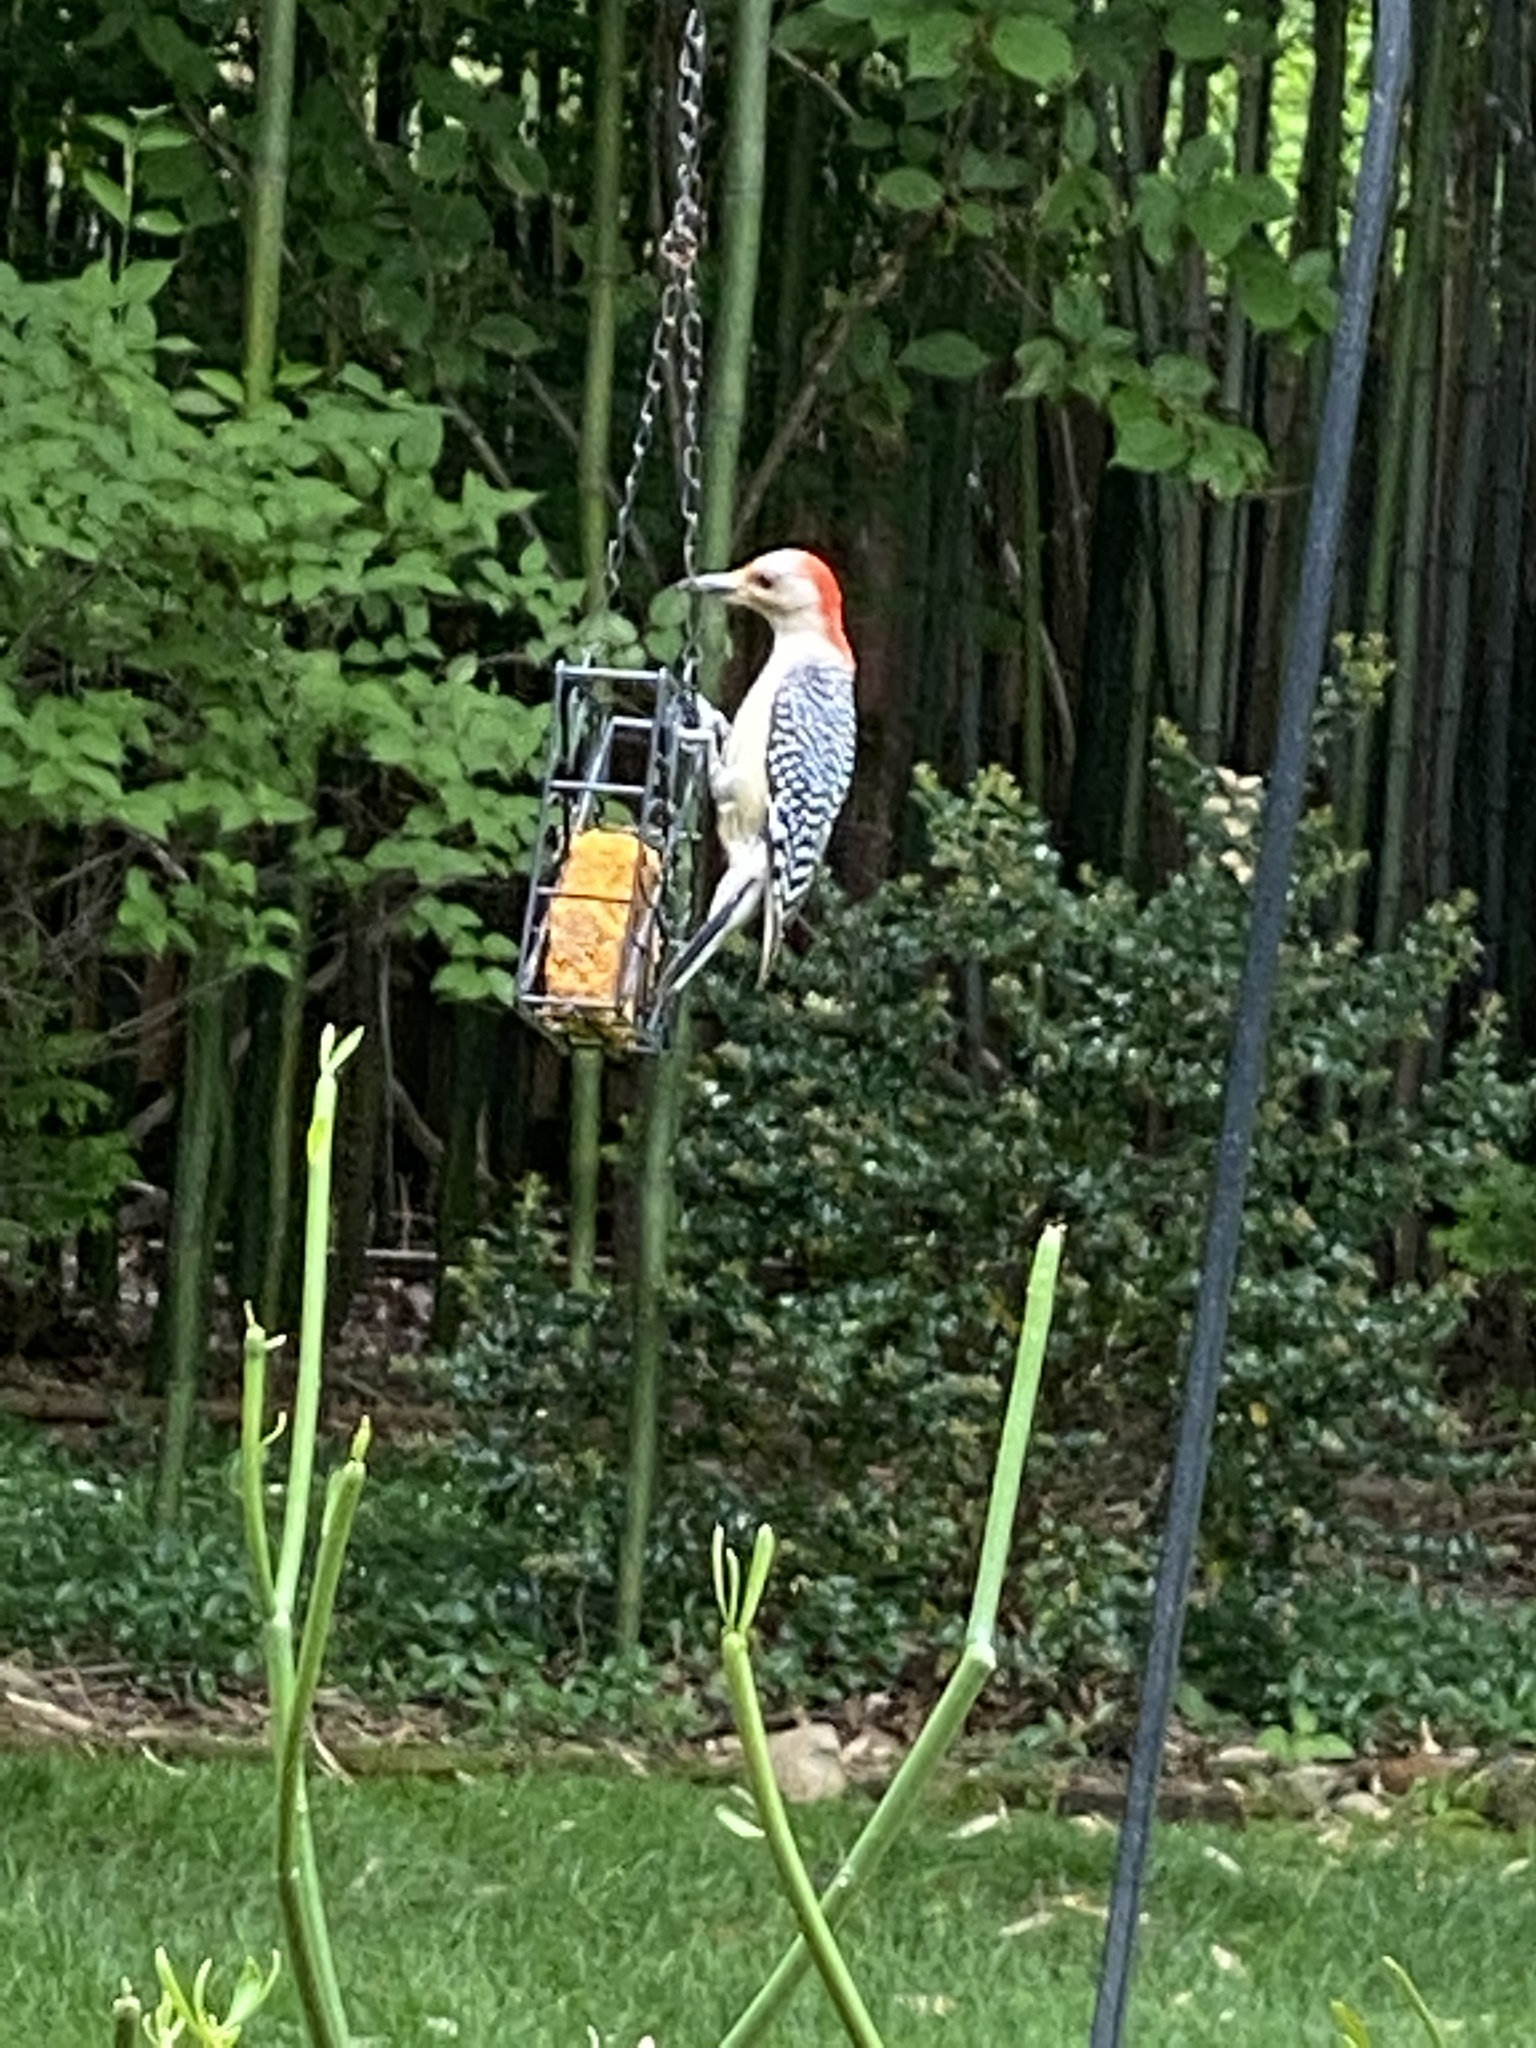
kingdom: Animalia
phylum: Chordata
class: Aves
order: Piciformes
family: Picidae
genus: Melanerpes
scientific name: Melanerpes carolinus
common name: Red-bellied woodpecker
